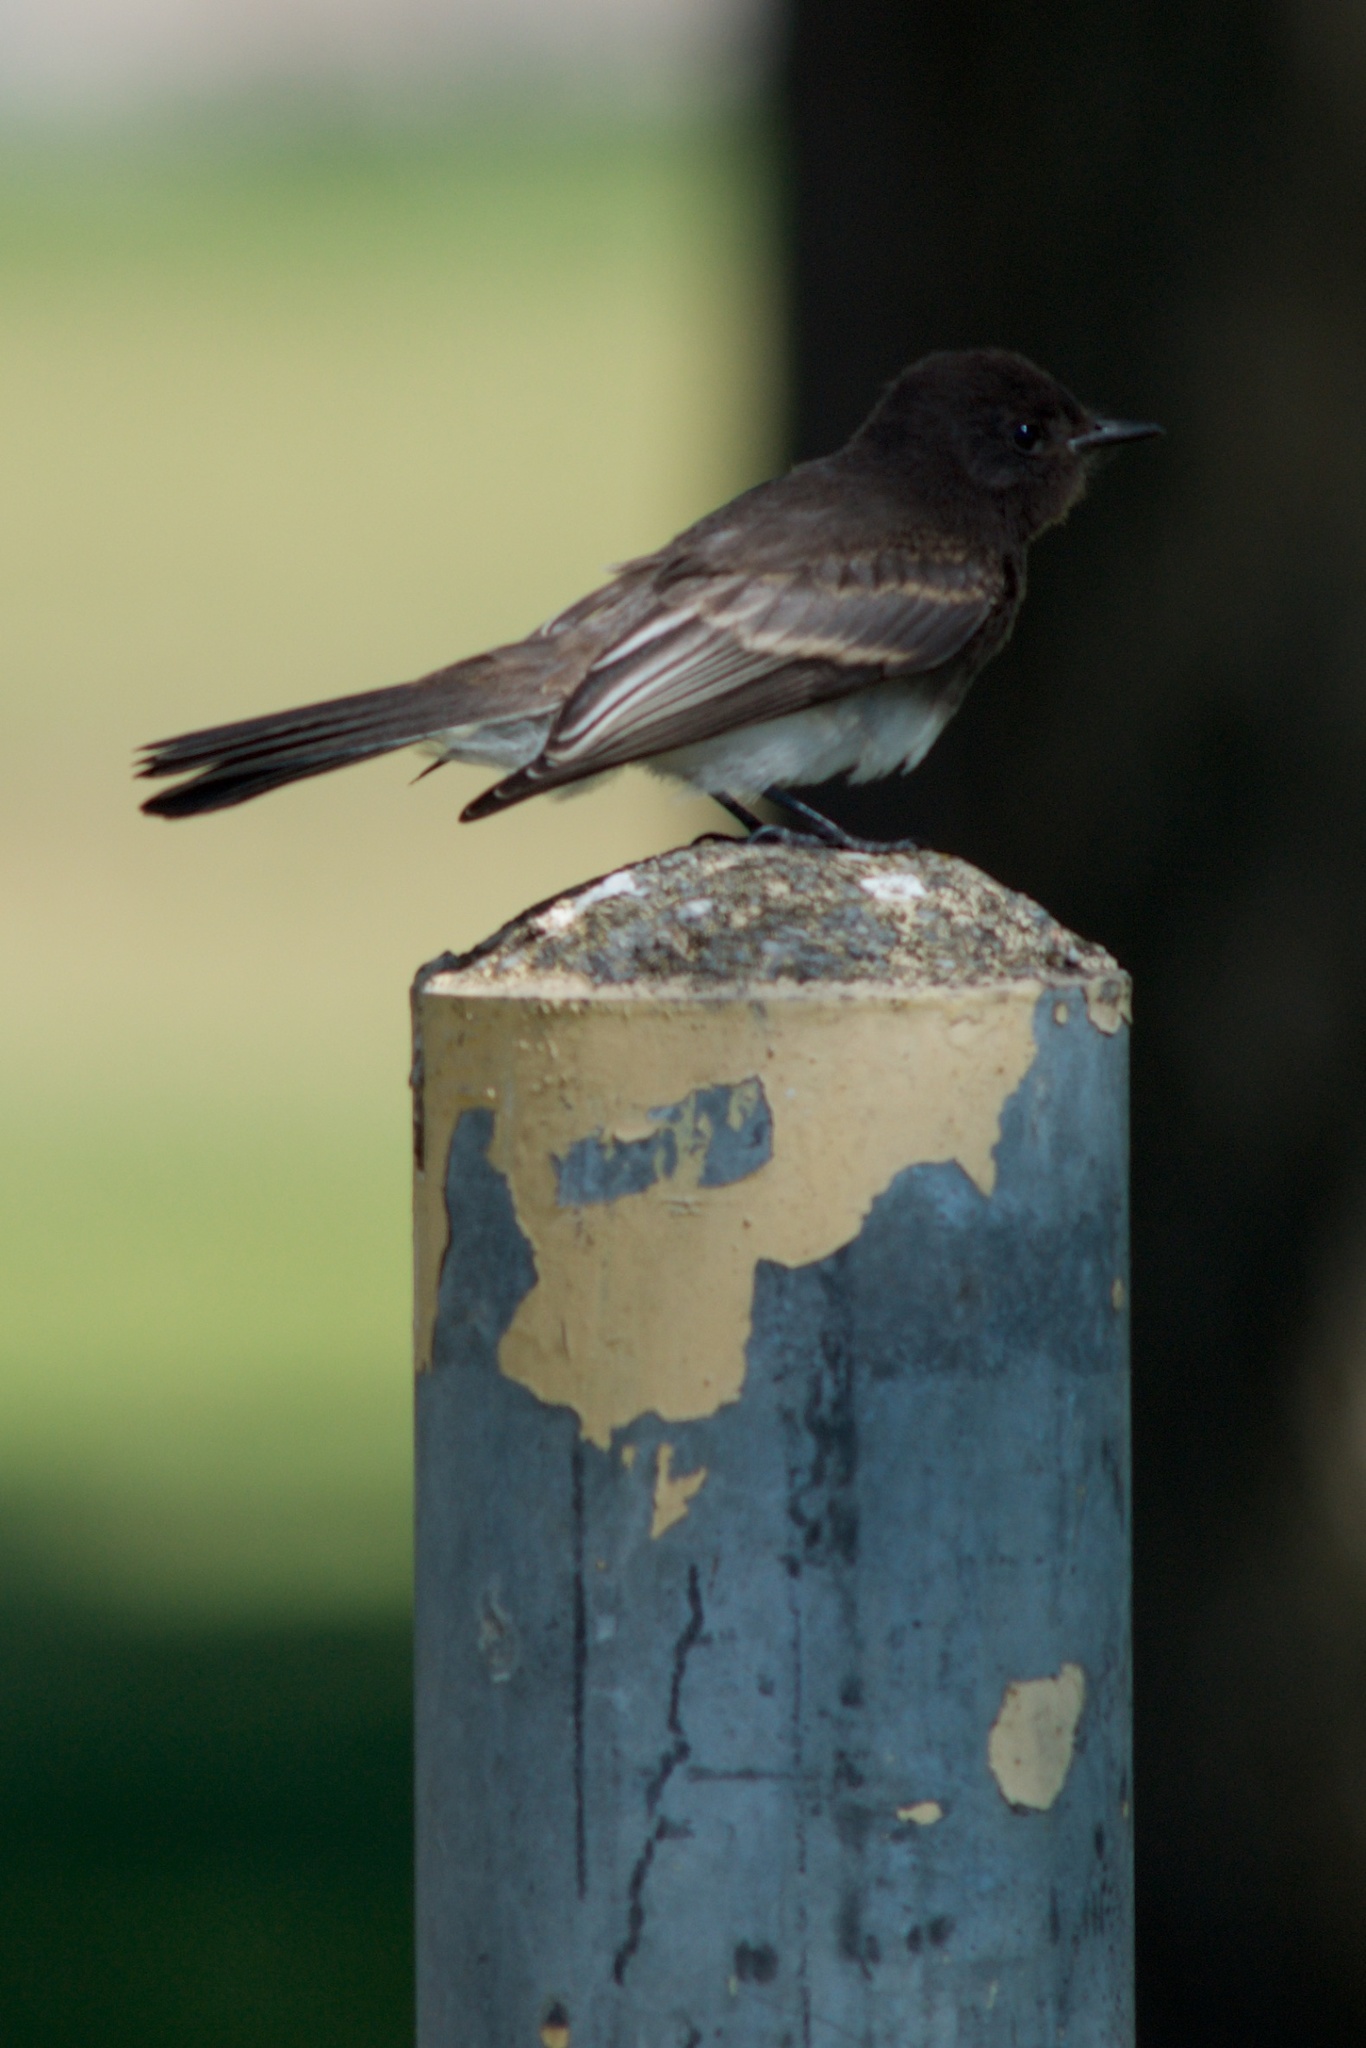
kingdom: Animalia
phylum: Chordata
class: Aves
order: Passeriformes
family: Tyrannidae
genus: Sayornis
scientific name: Sayornis nigricans
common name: Black phoebe
